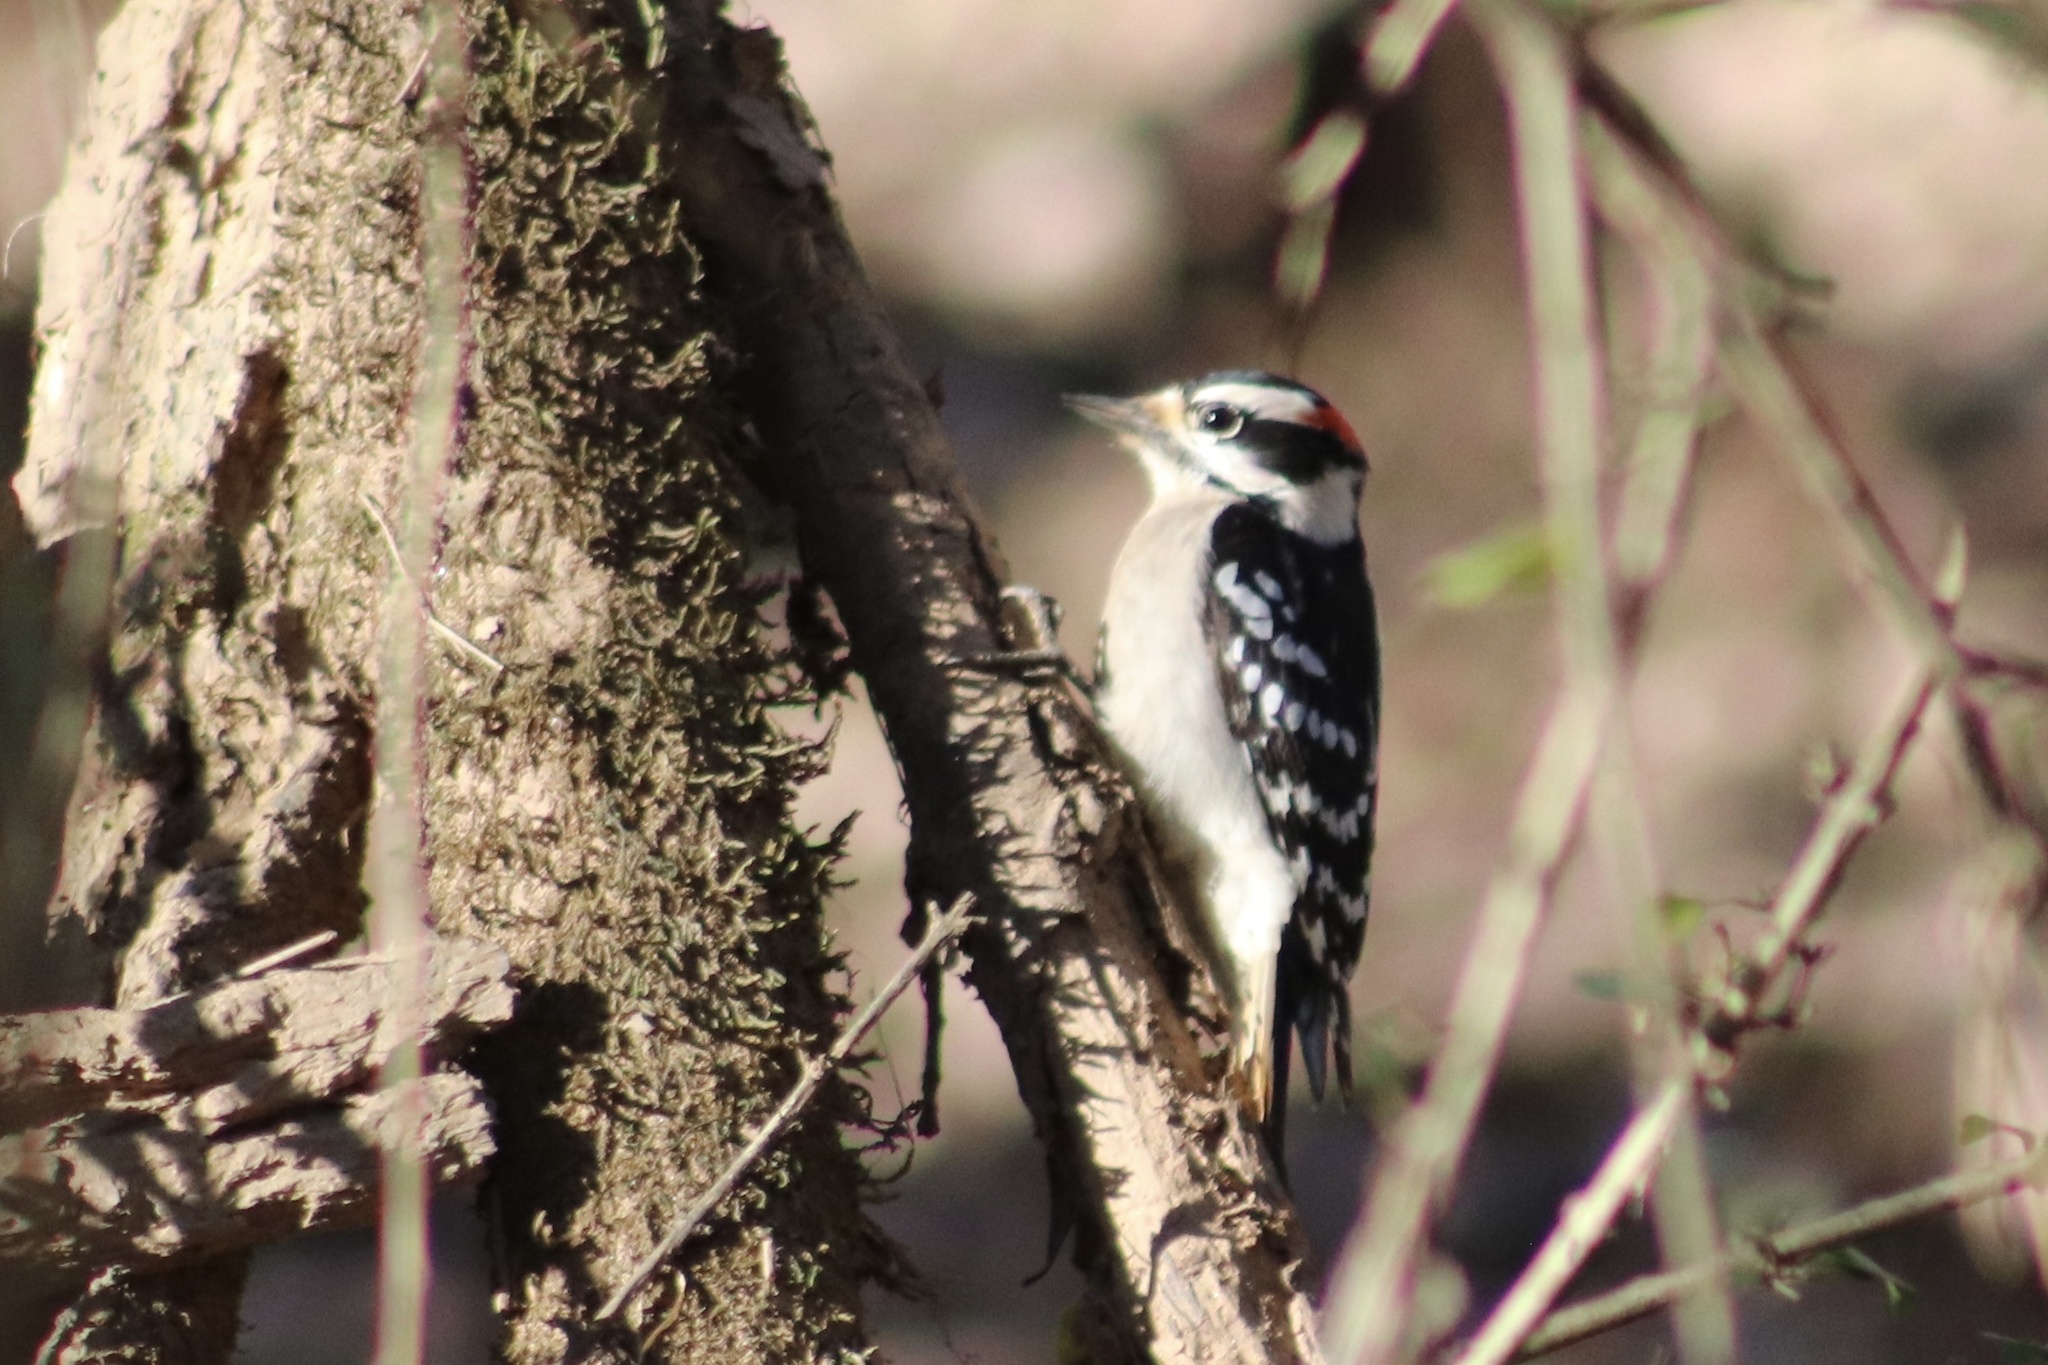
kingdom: Animalia
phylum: Chordata
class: Aves
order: Piciformes
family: Picidae
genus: Dryobates
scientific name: Dryobates pubescens
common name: Downy woodpecker
